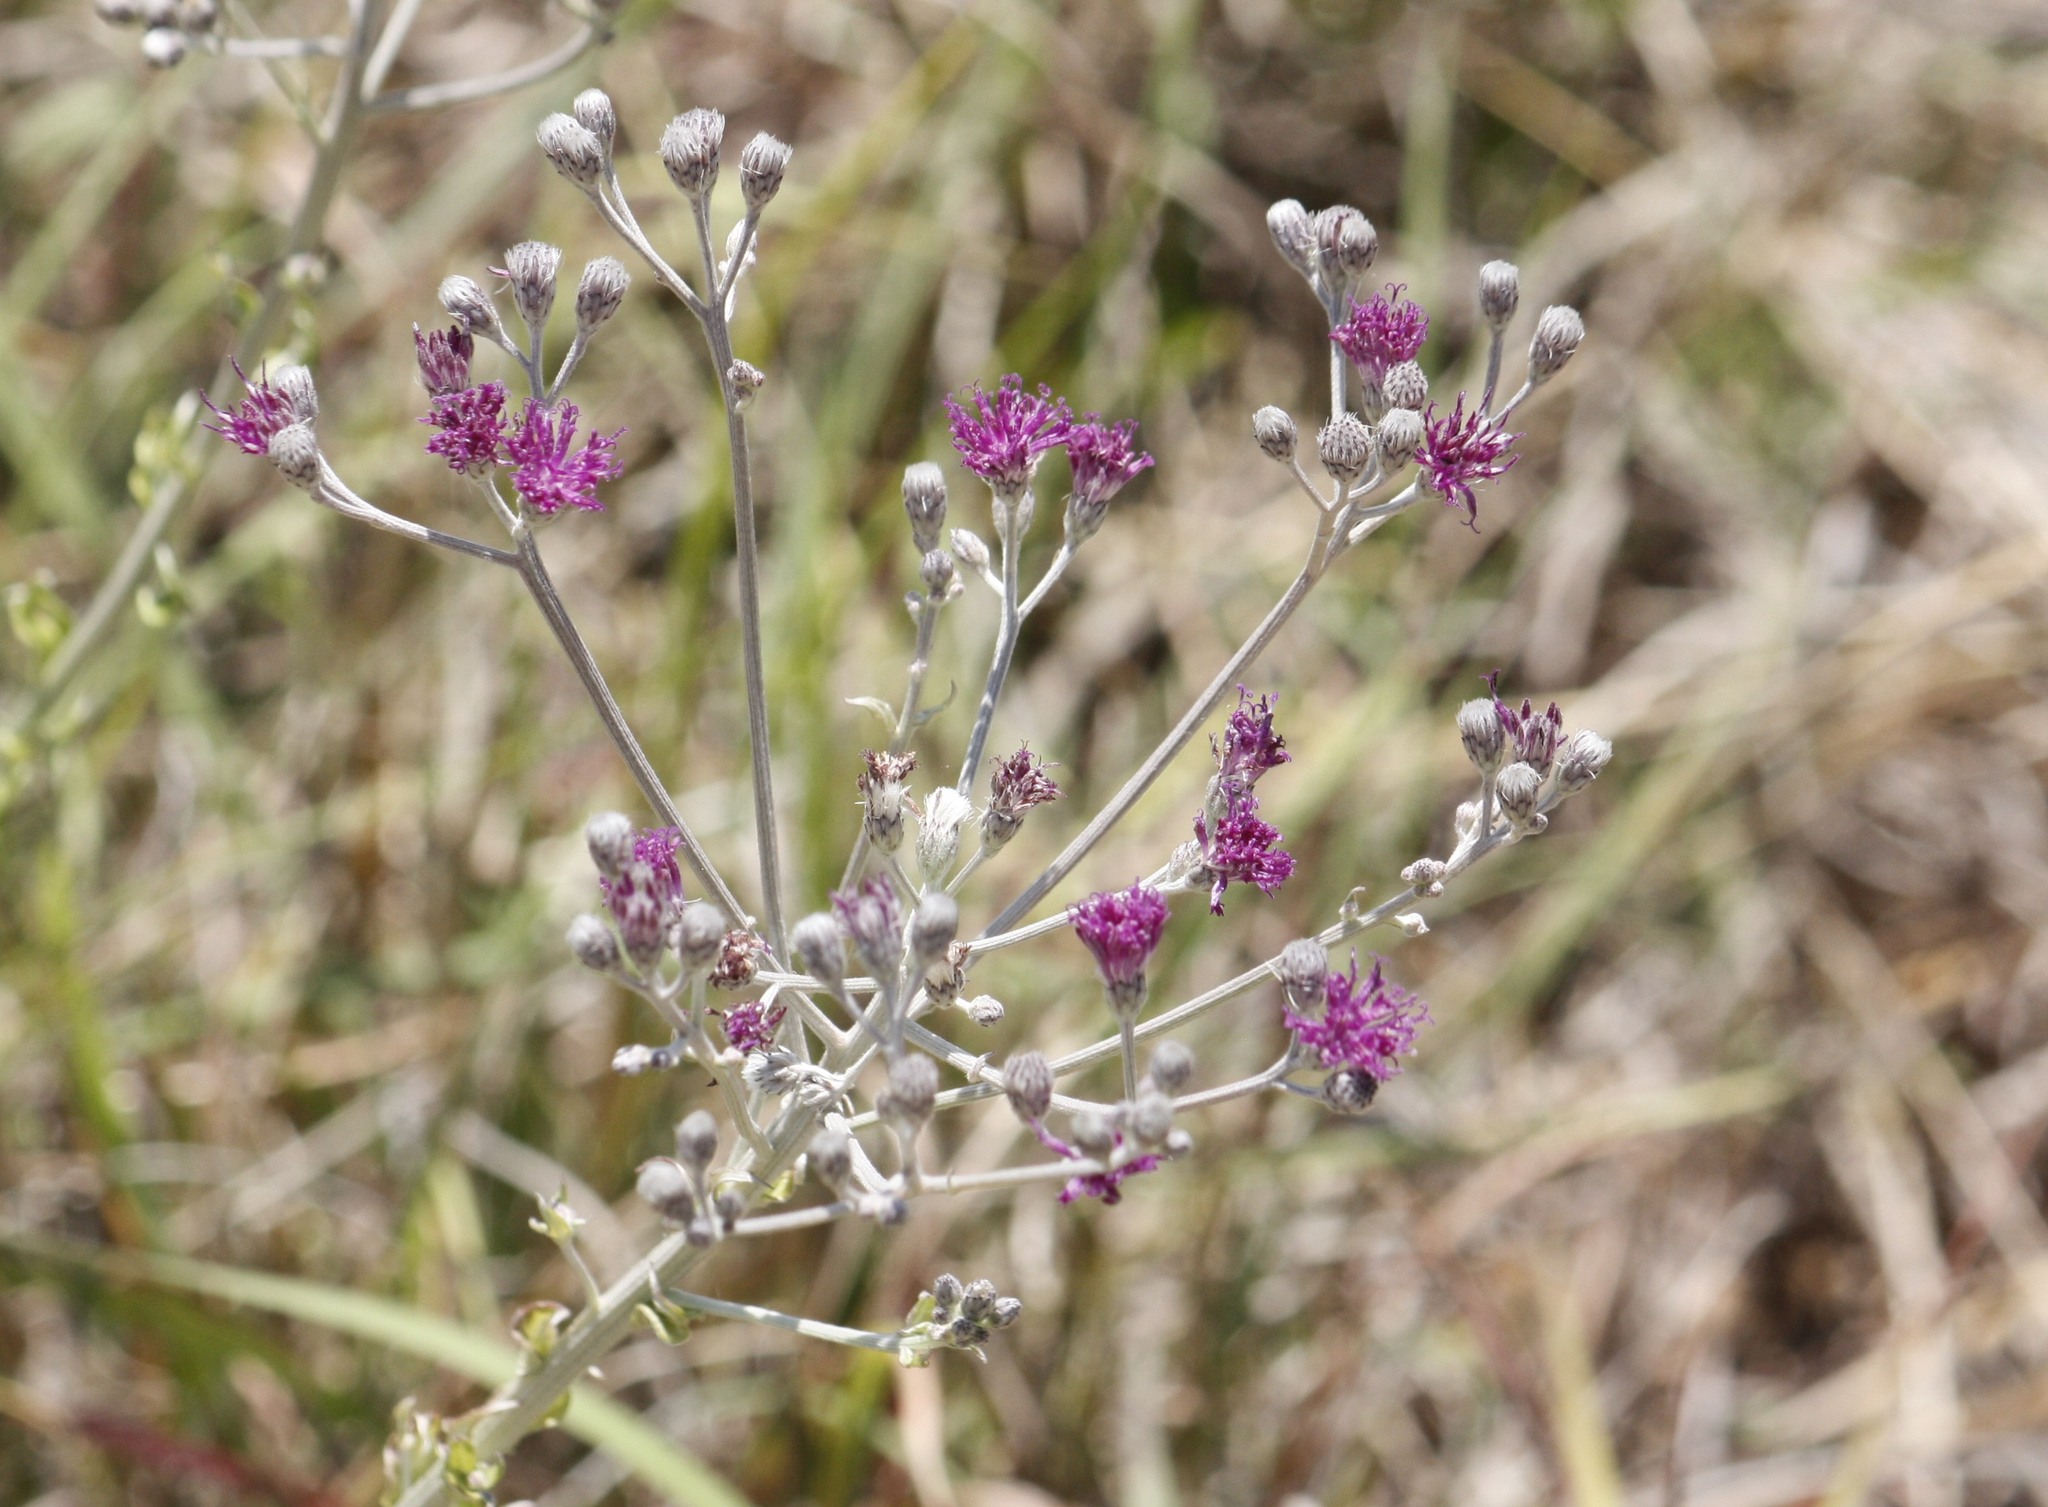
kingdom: Plantae
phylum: Tracheophyta
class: Magnoliopsida
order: Asterales
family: Asteraceae
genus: Hilliardiella
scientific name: Hilliardiella oligocephala
